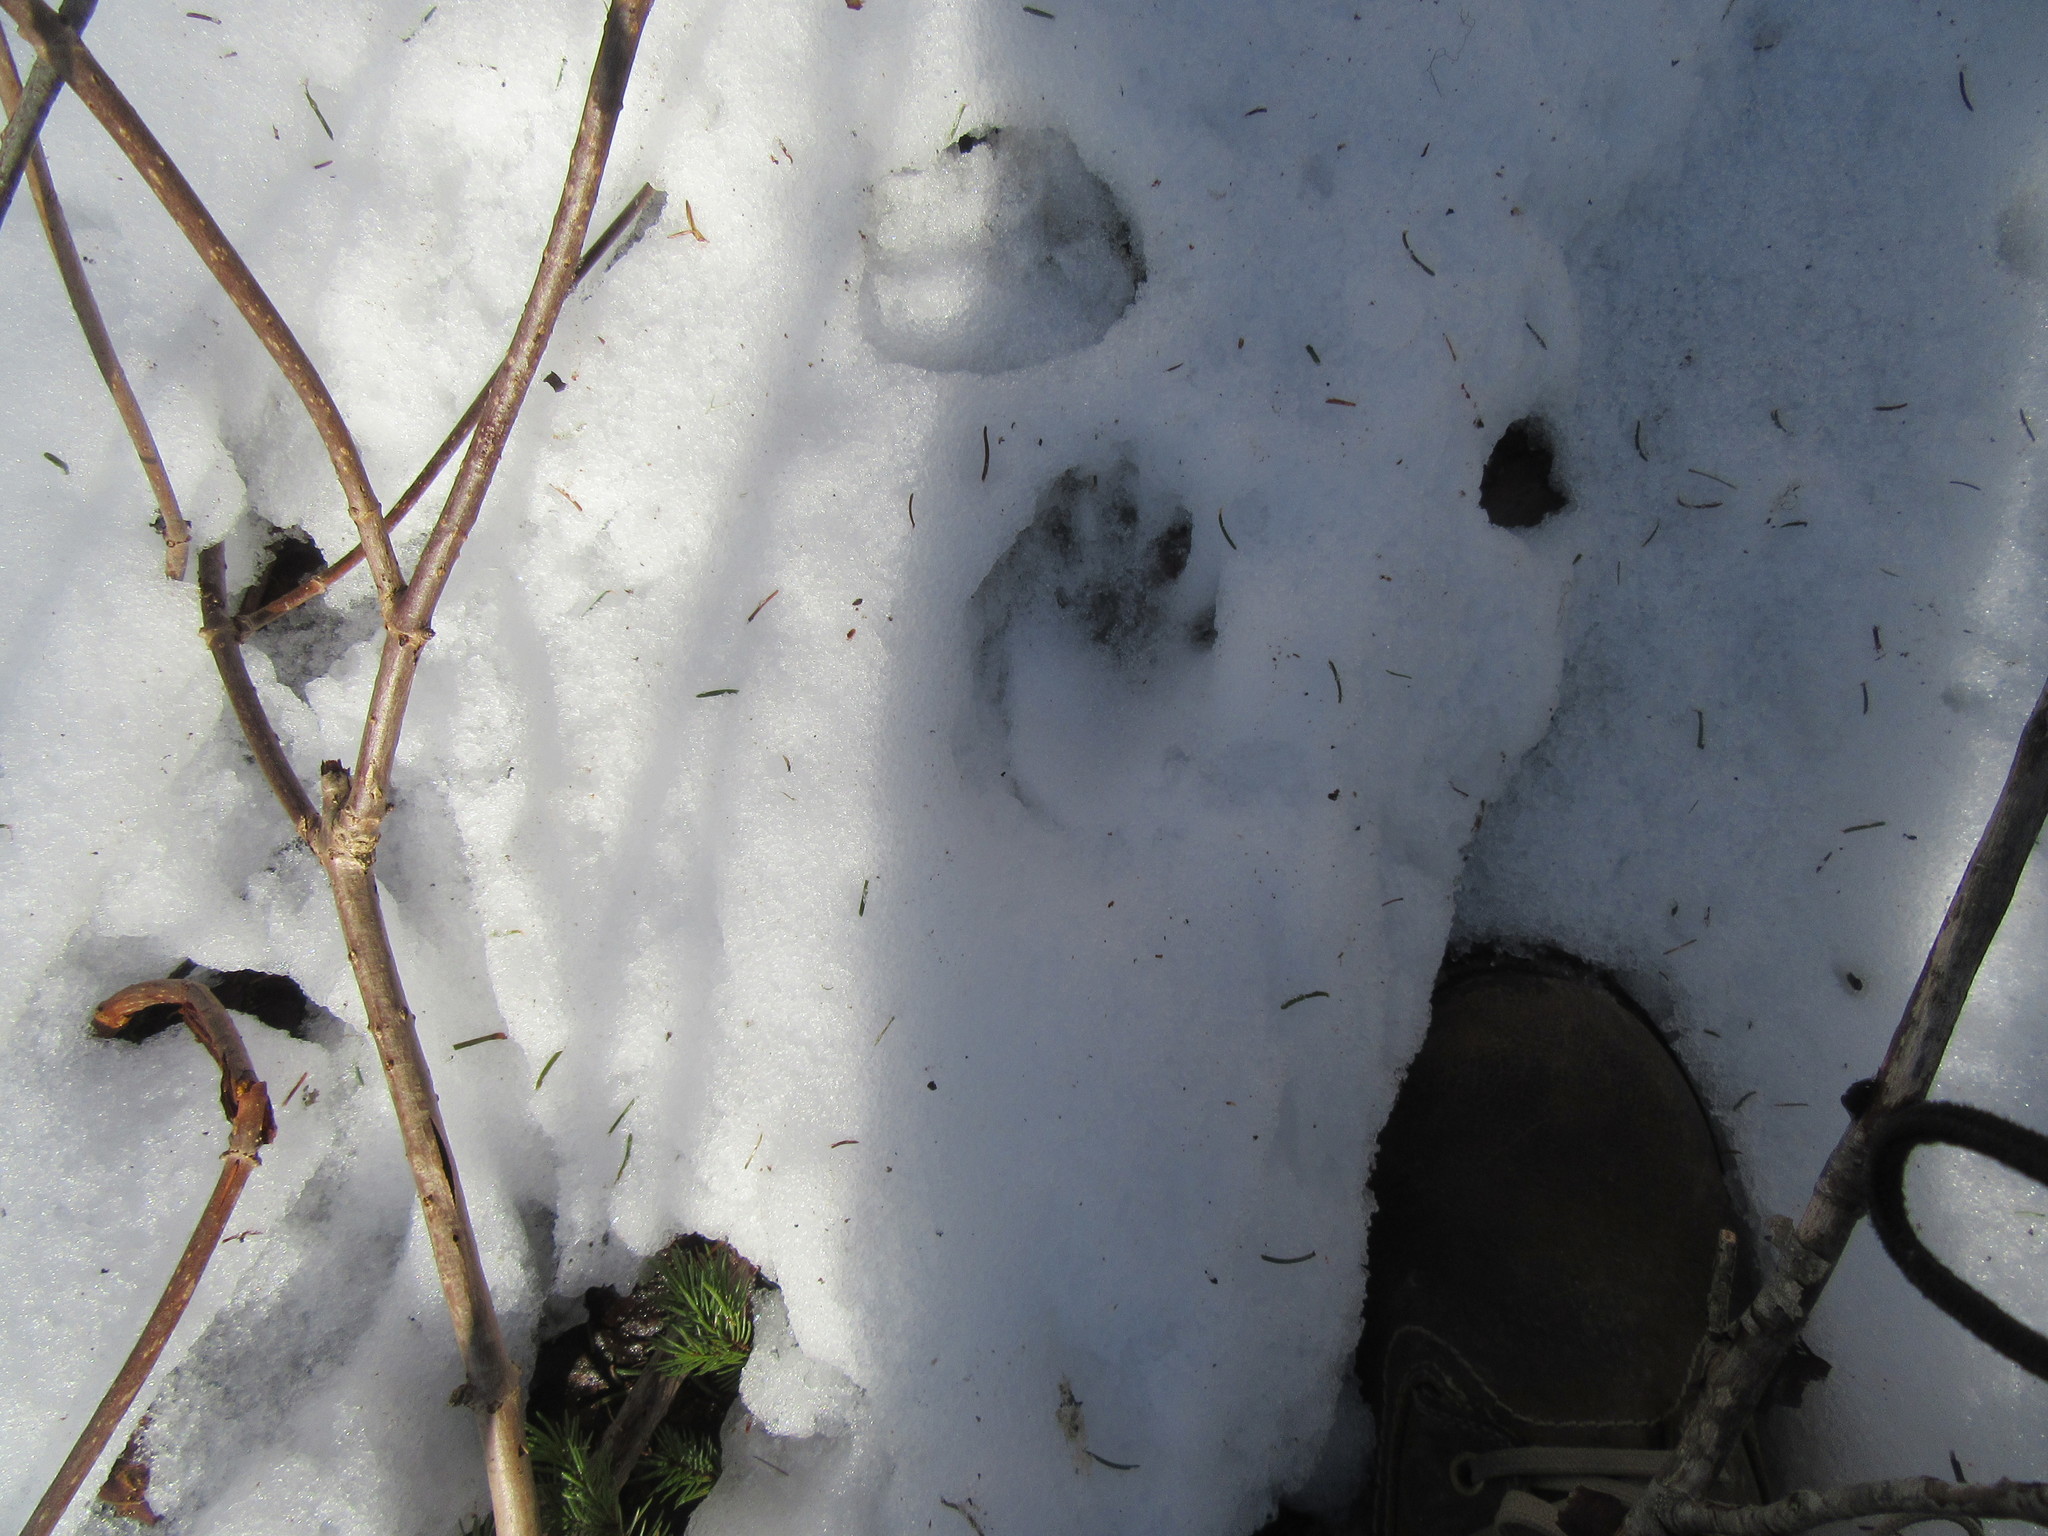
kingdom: Animalia
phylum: Chordata
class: Mammalia
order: Carnivora
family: Procyonidae
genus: Procyon
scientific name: Procyon lotor
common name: Raccoon
